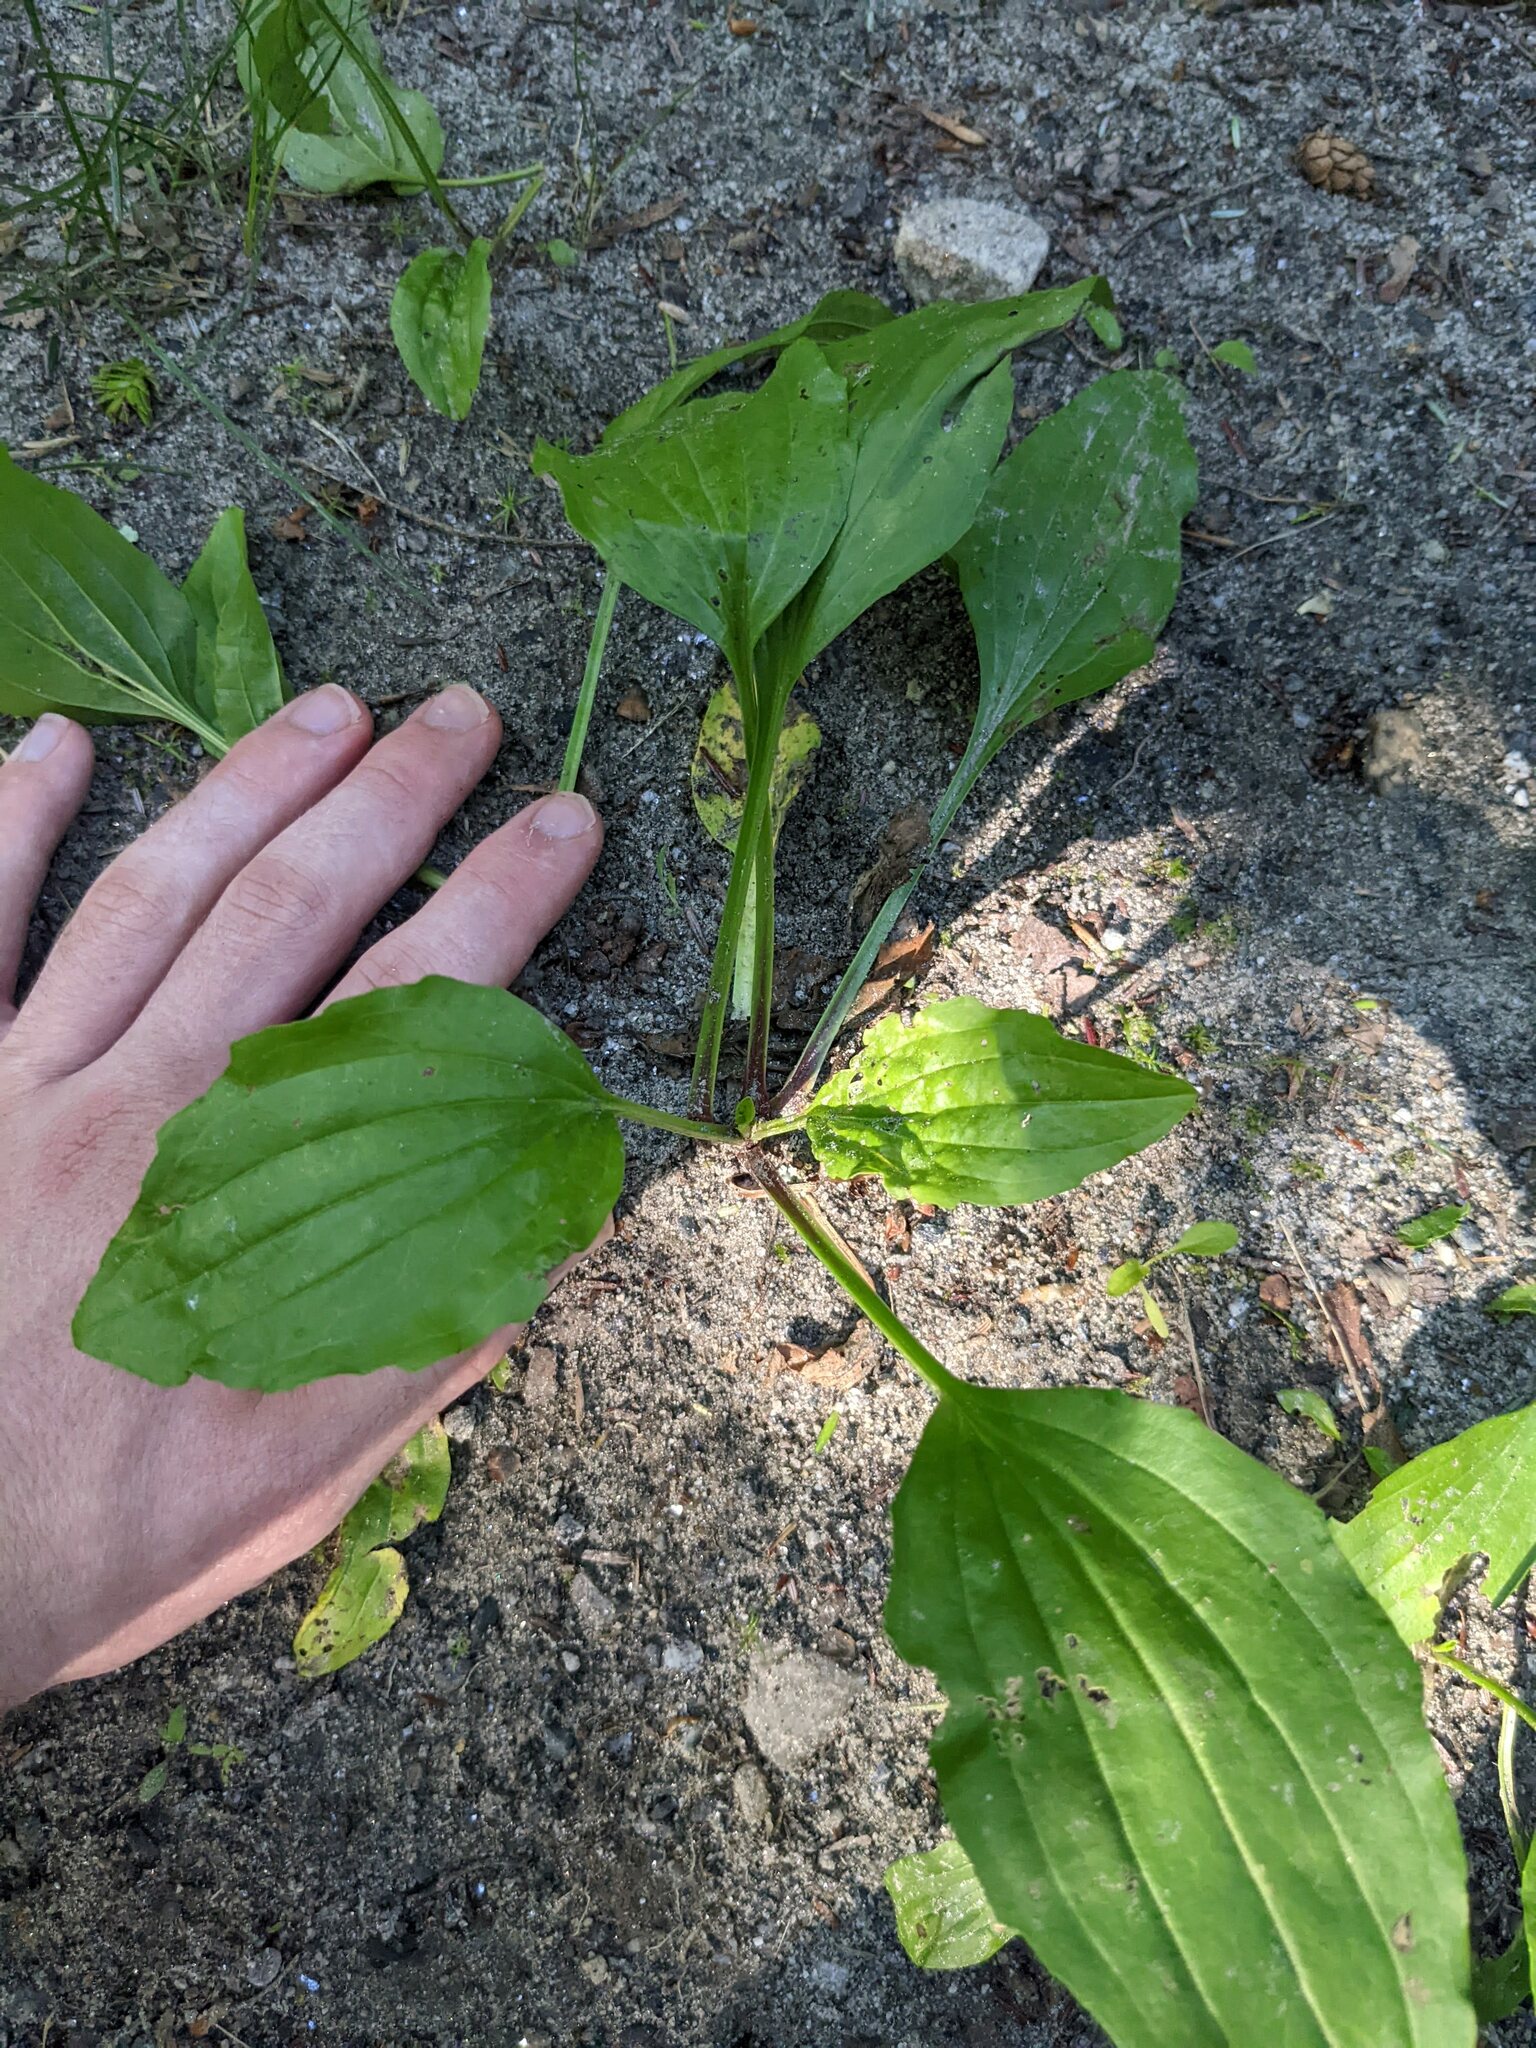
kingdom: Plantae
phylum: Tracheophyta
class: Magnoliopsida
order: Lamiales
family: Plantaginaceae
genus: Plantago
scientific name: Plantago rugelii
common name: American plantain
